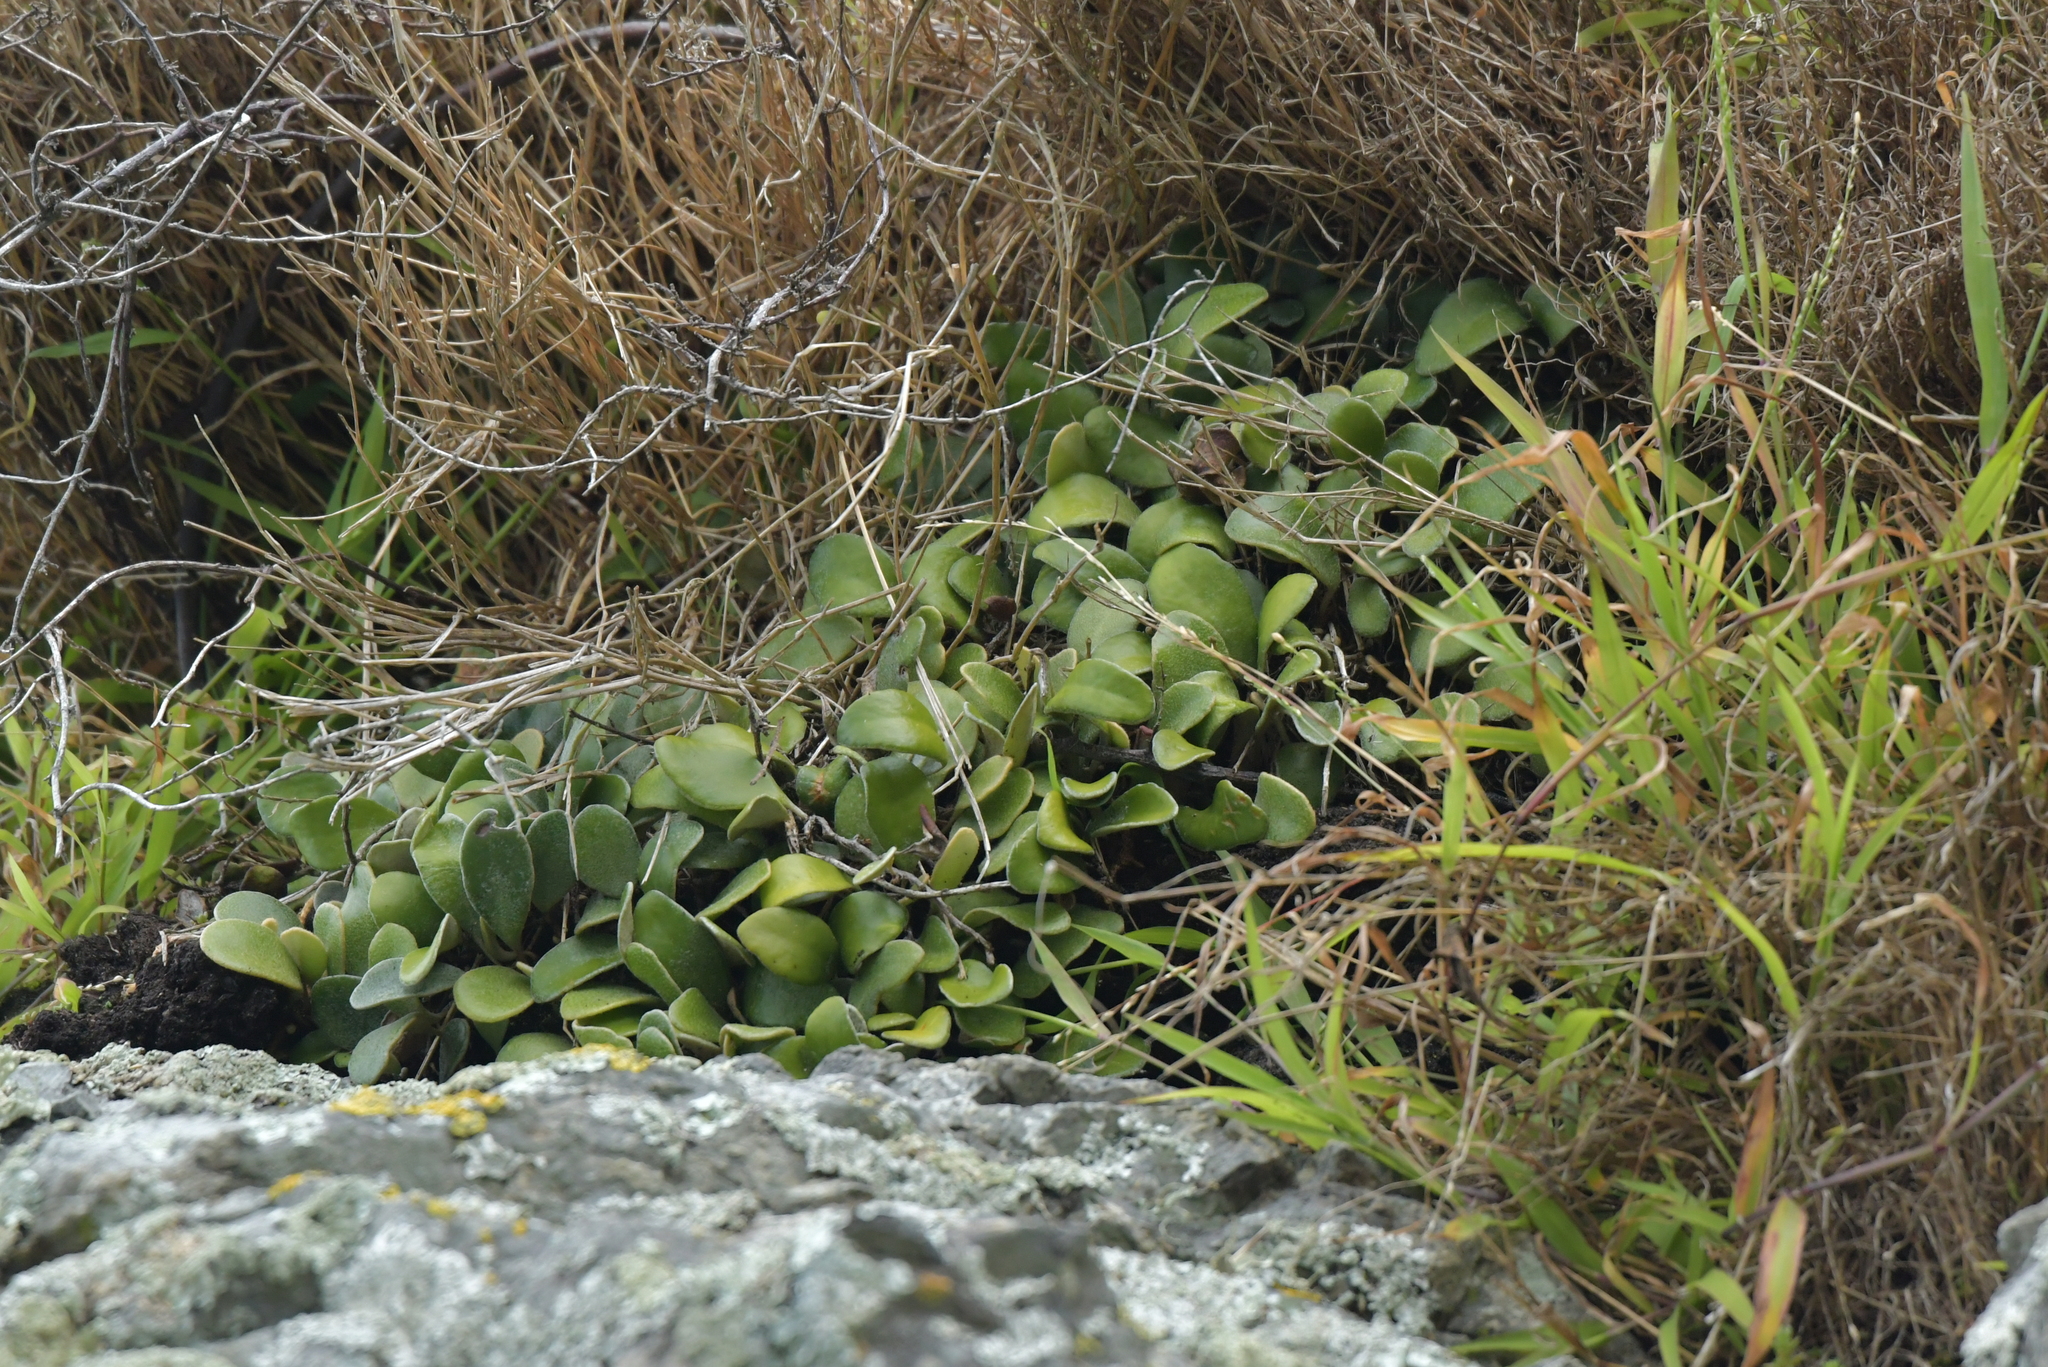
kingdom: Plantae
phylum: Tracheophyta
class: Polypodiopsida
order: Polypodiales
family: Polypodiaceae
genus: Pyrrosia
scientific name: Pyrrosia eleagnifolia
